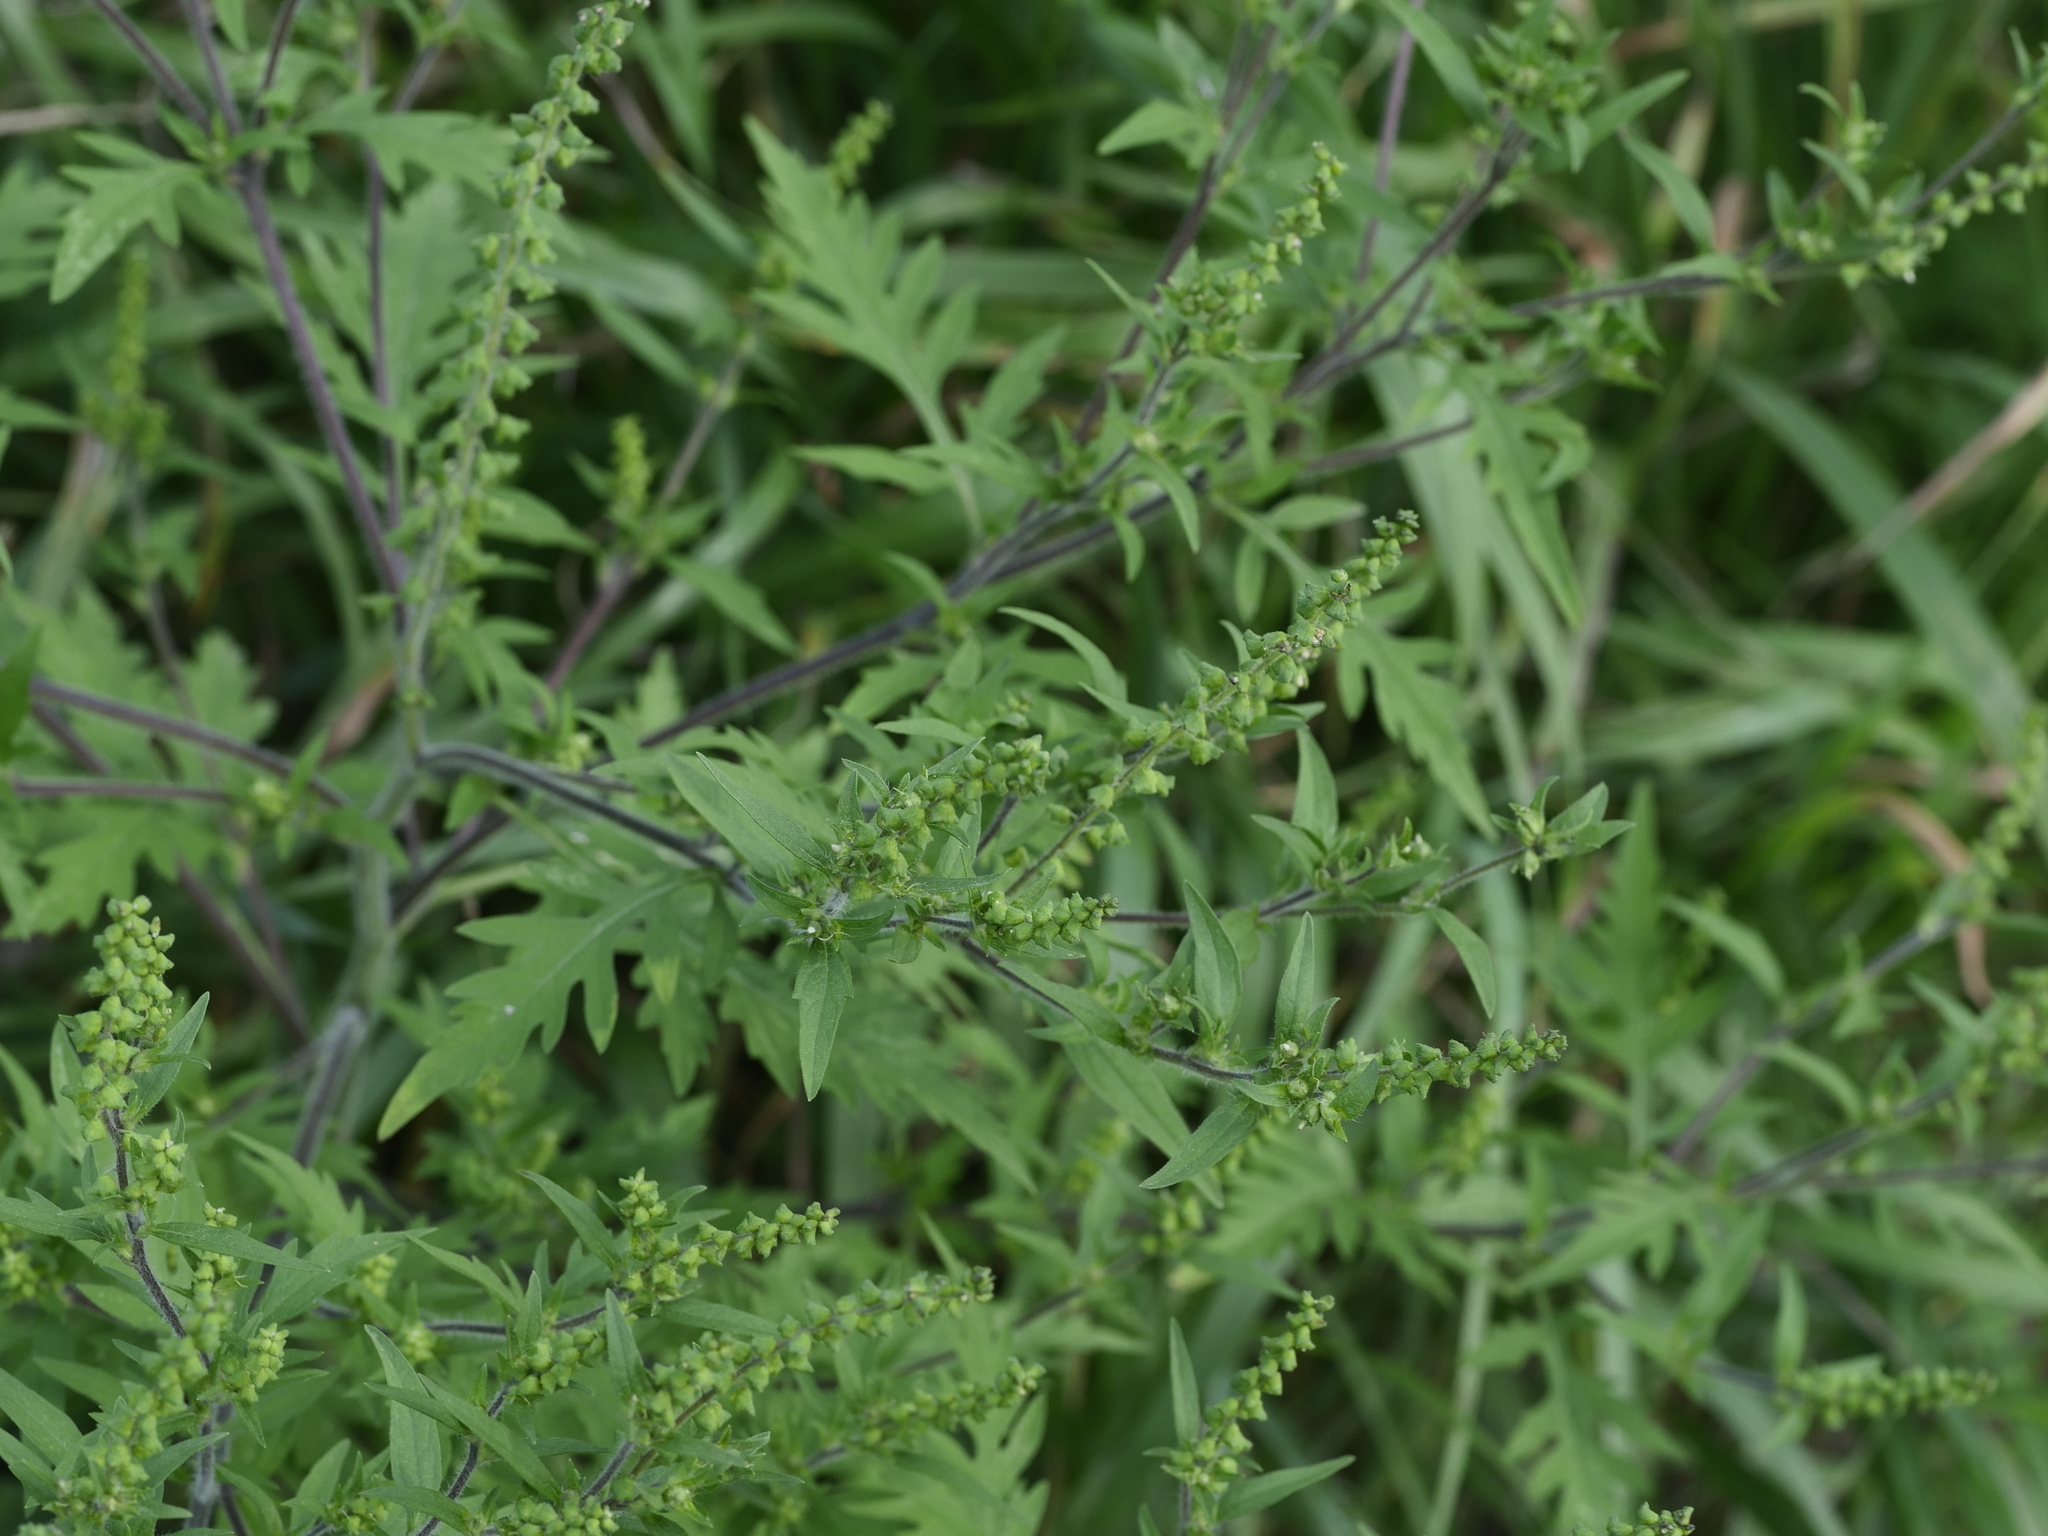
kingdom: Plantae
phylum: Tracheophyta
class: Magnoliopsida
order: Asterales
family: Asteraceae
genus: Ambrosia
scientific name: Ambrosia artemisiifolia
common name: Annual ragweed
